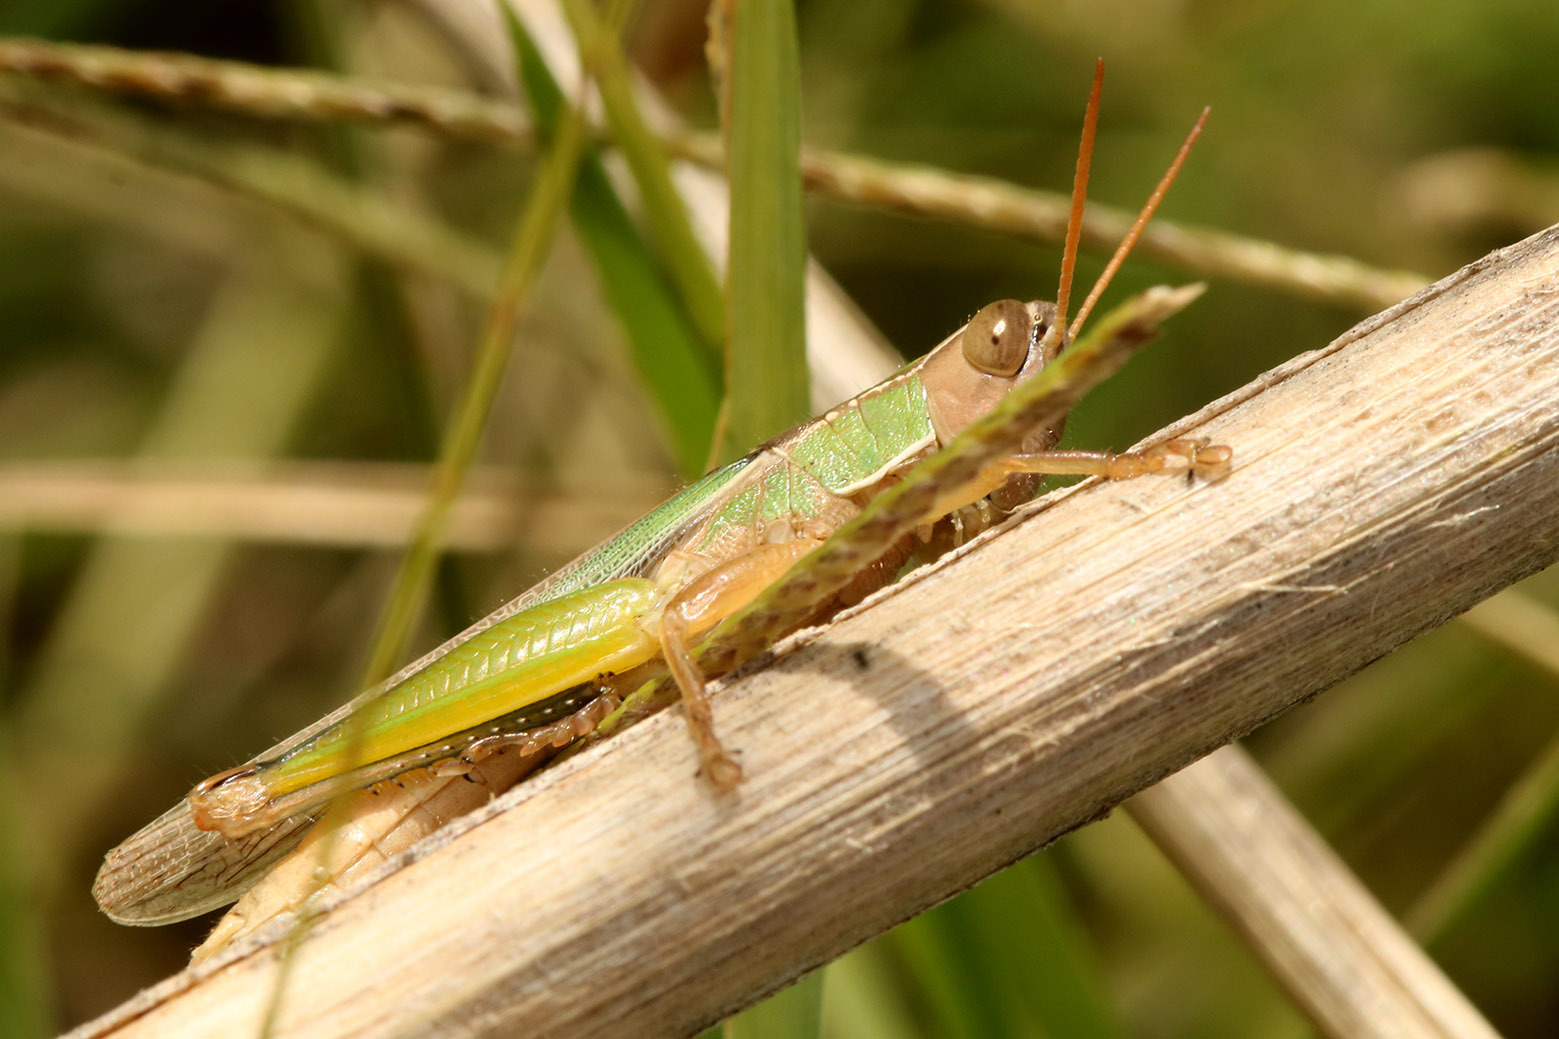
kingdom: Animalia
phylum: Arthropoda
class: Insecta
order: Orthoptera
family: Acrididae
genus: Aleuas
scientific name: Aleuas lineatus
